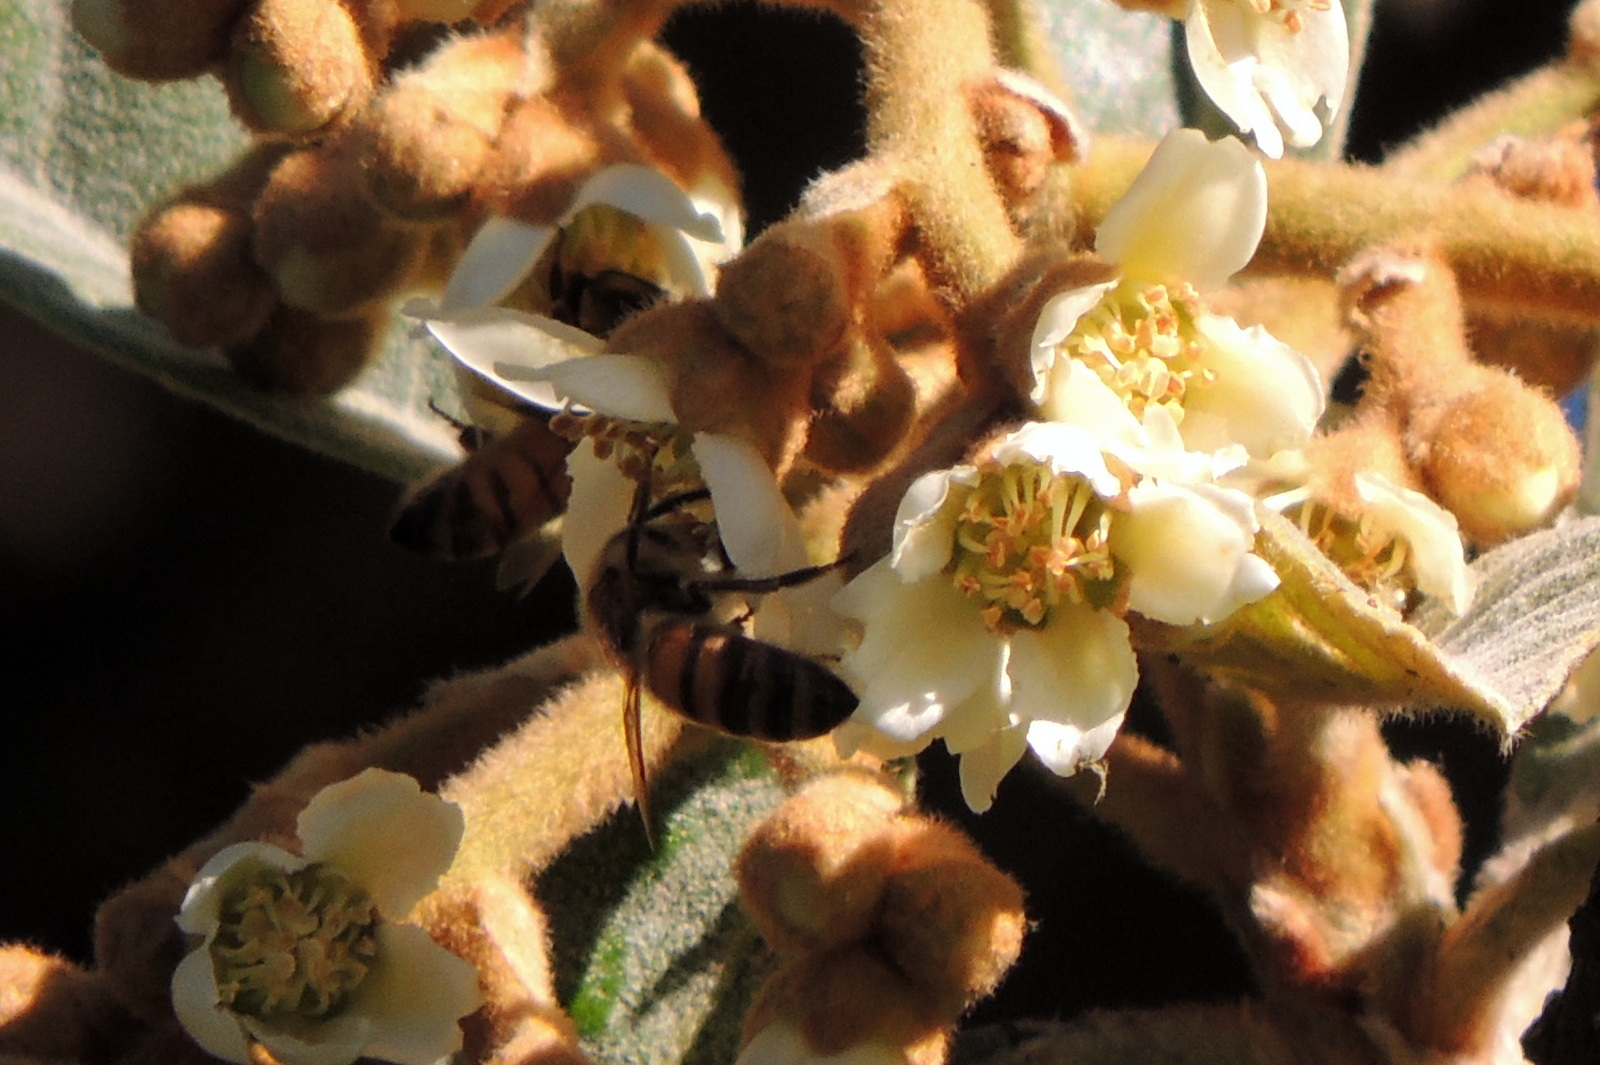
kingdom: Animalia
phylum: Arthropoda
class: Insecta
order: Hymenoptera
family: Apidae
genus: Apis
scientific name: Apis mellifera
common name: Honey bee
